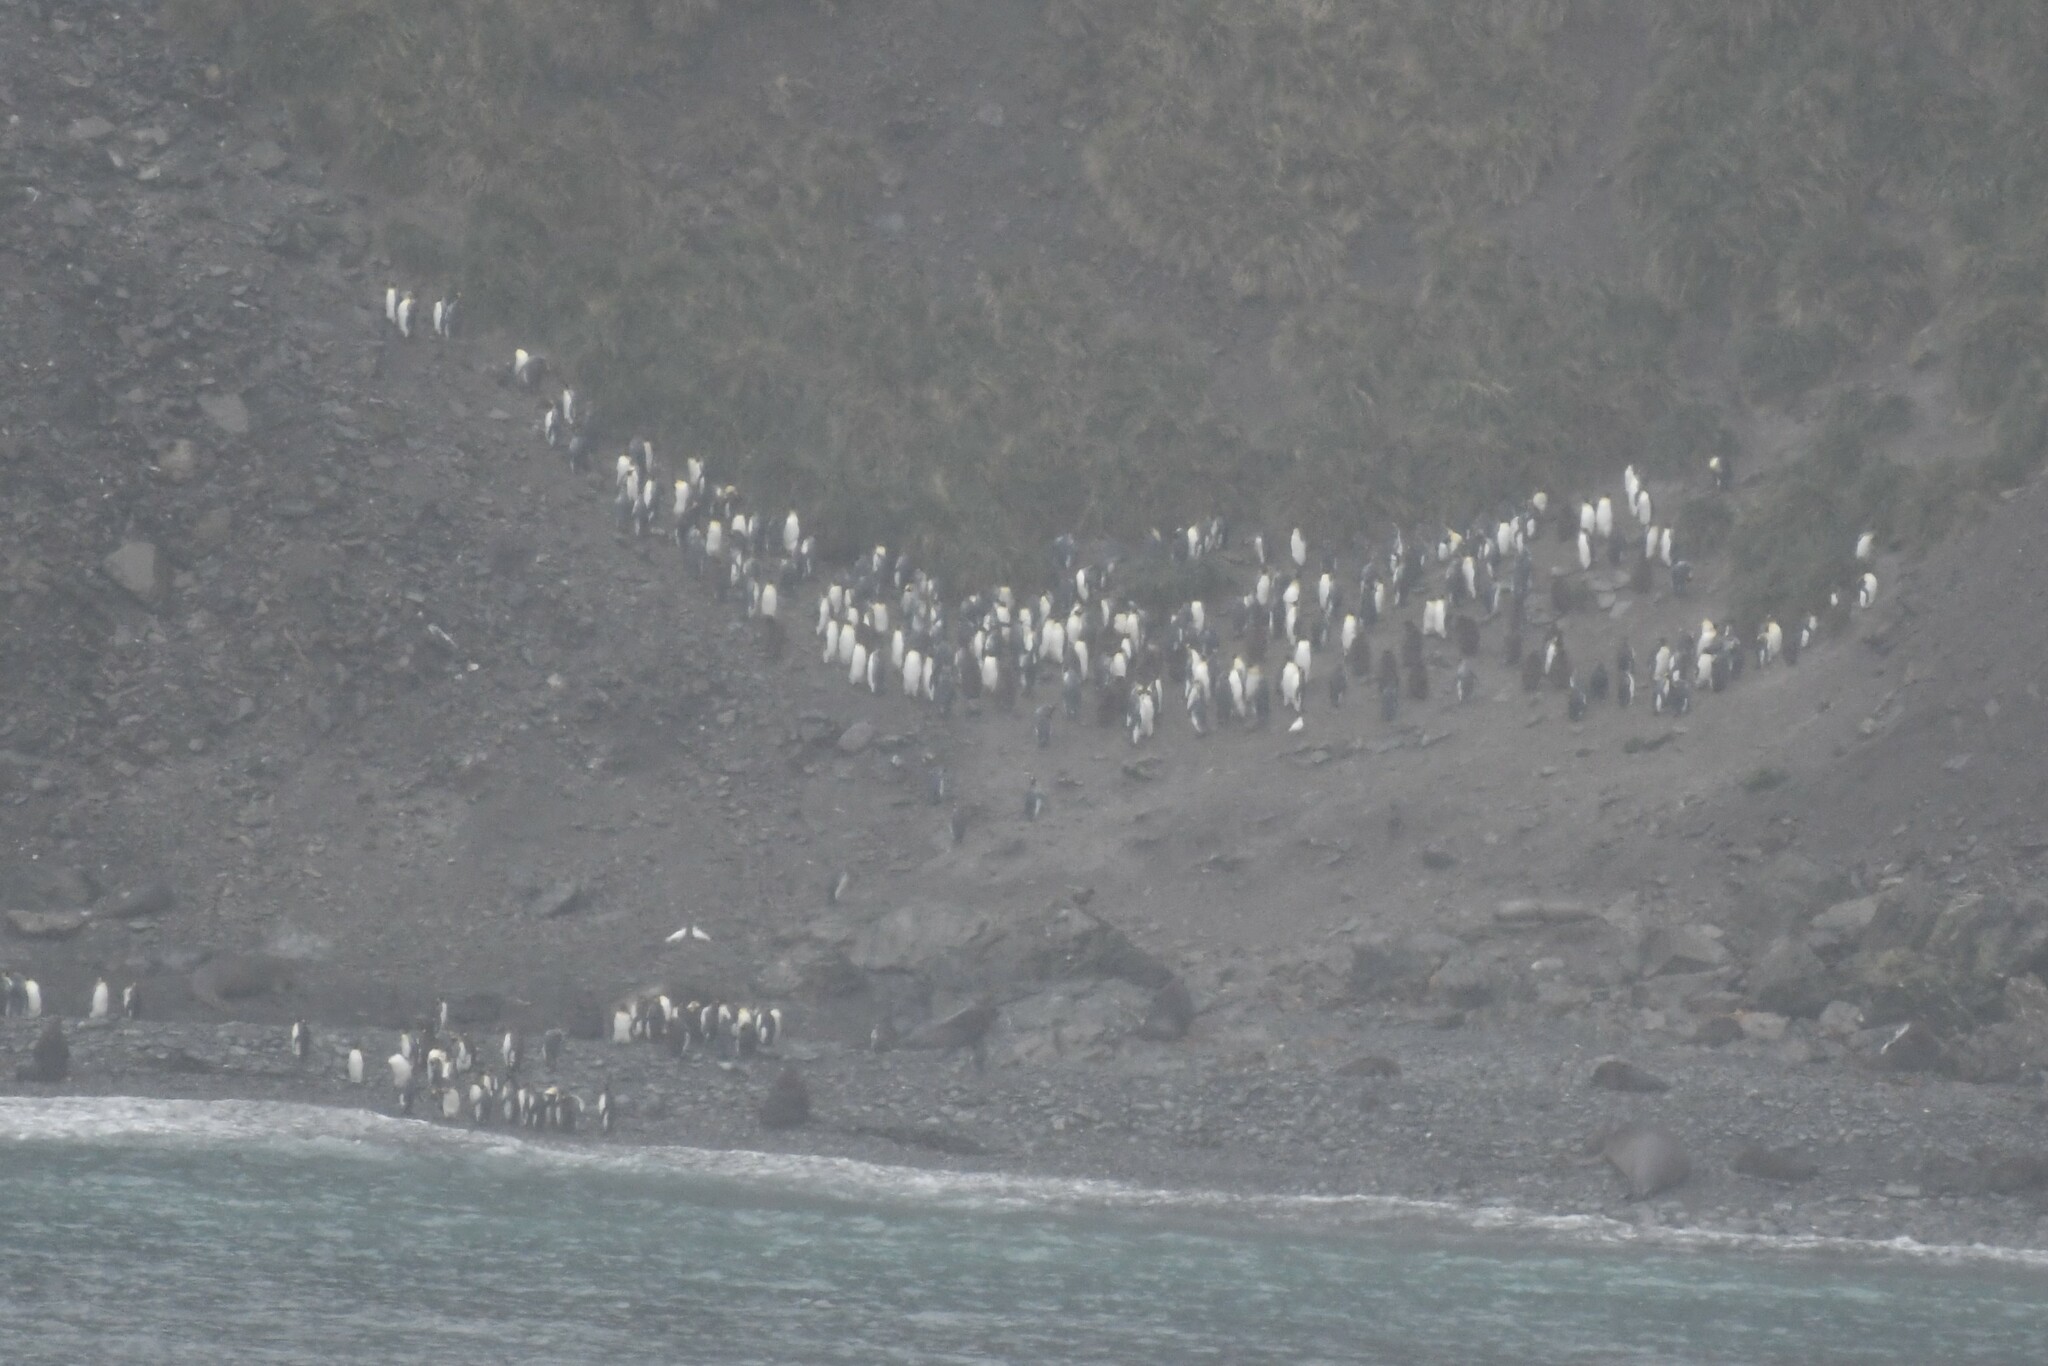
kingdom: Animalia
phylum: Chordata
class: Aves
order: Sphenisciformes
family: Spheniscidae
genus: Aptenodytes
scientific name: Aptenodytes patagonicus
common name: King penguin
